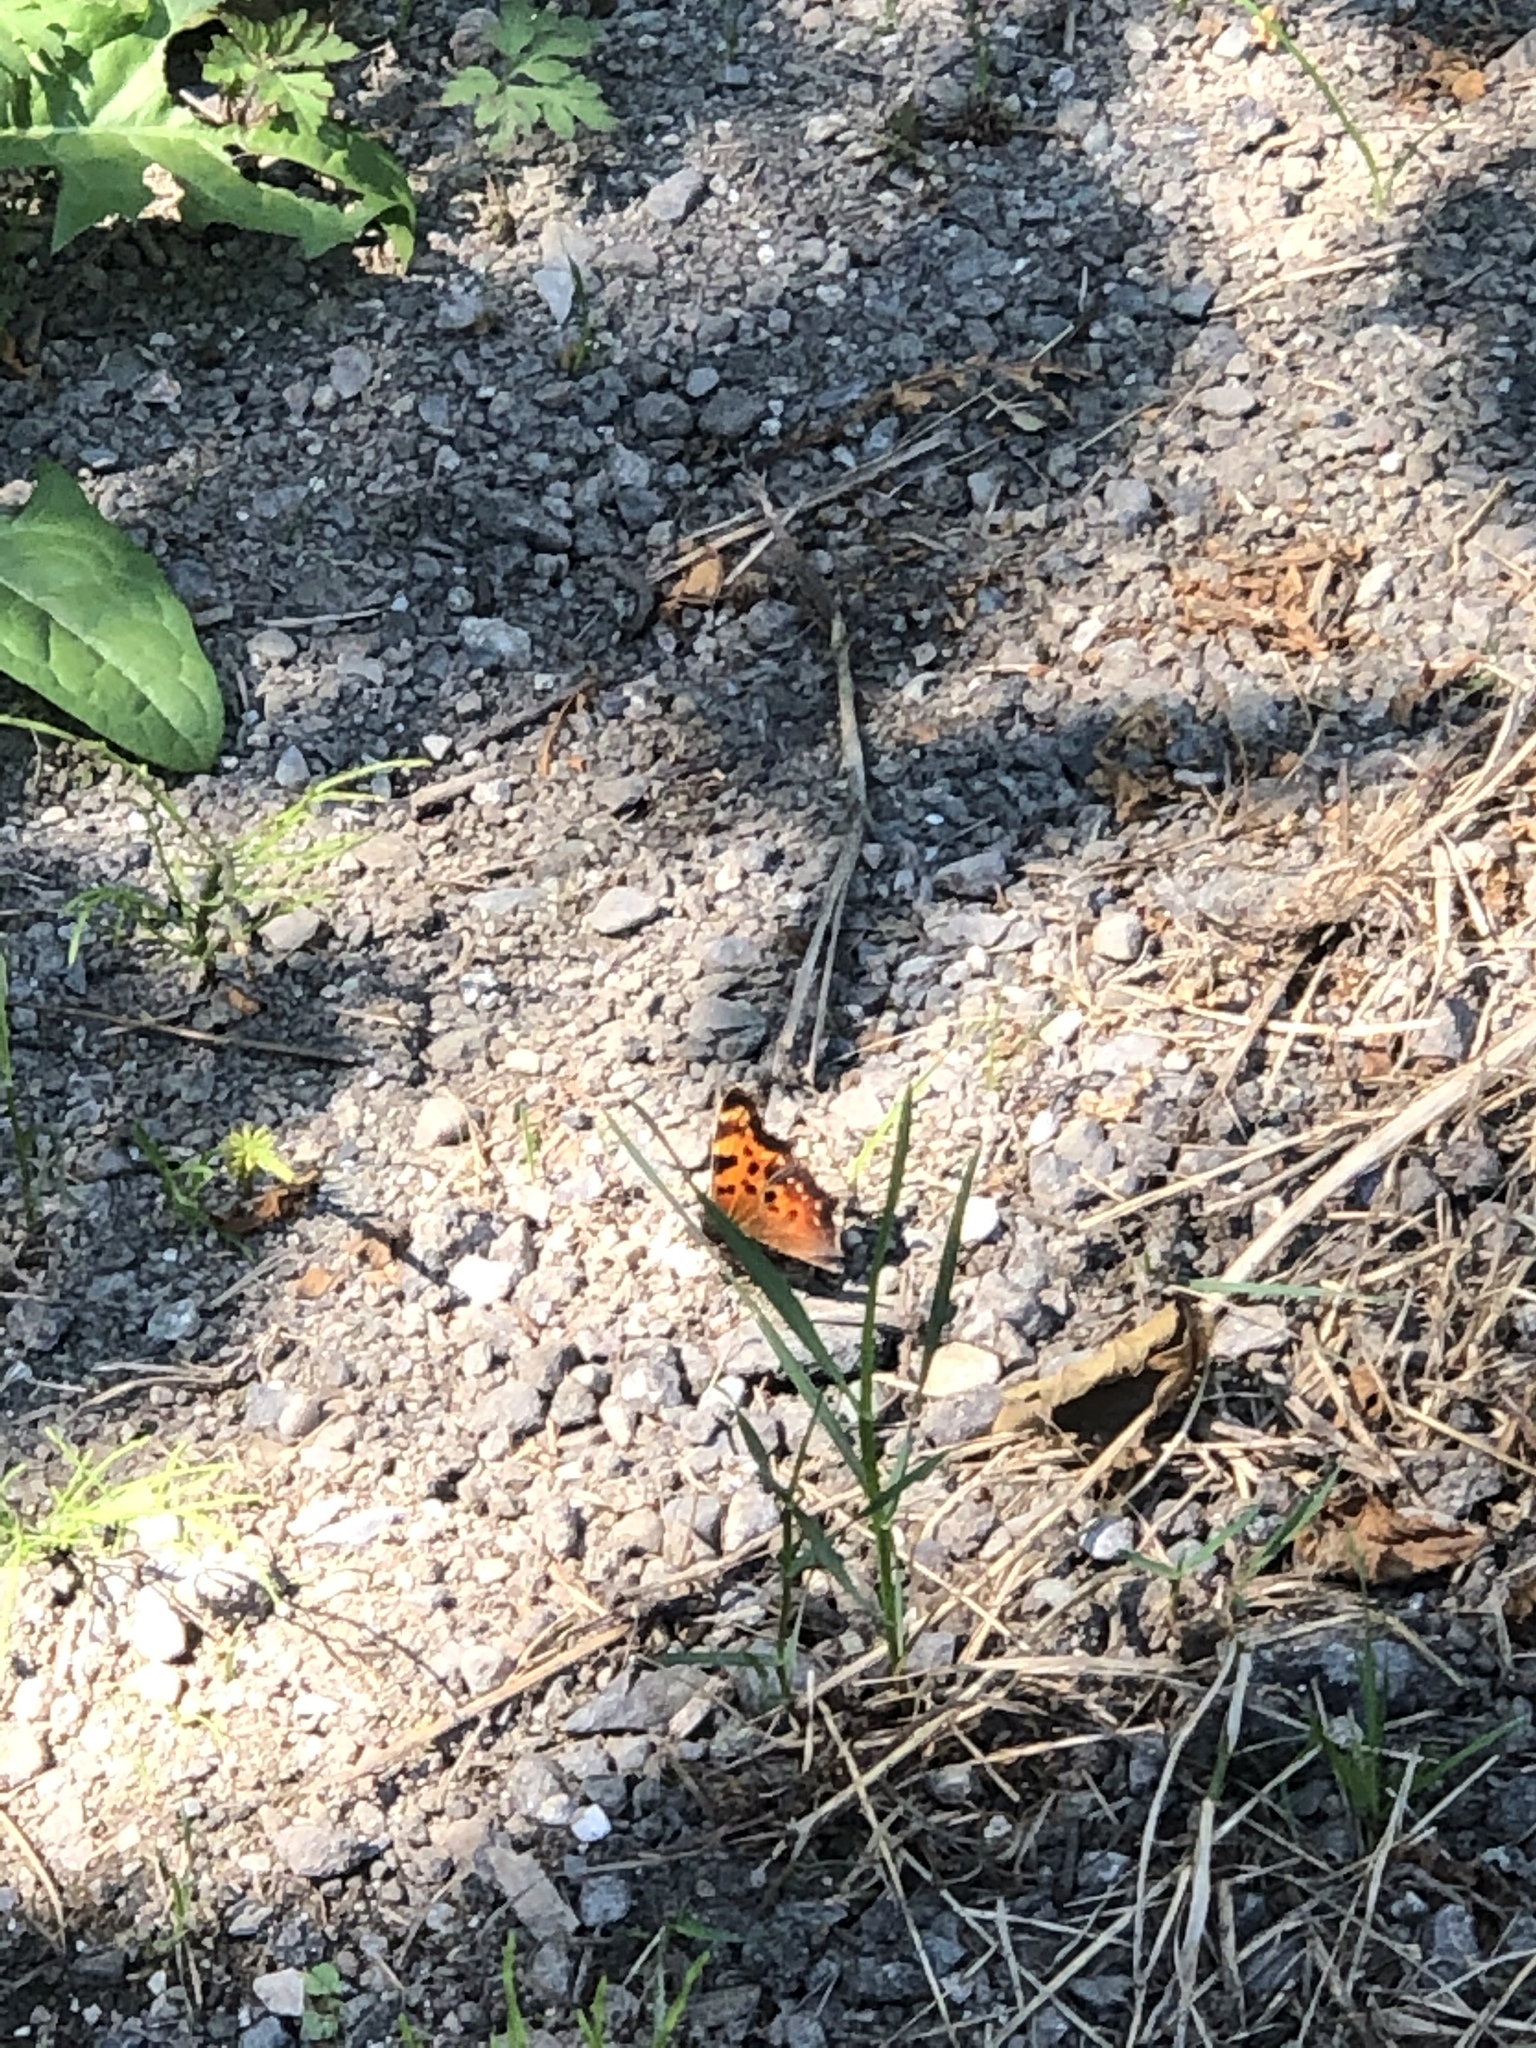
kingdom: Animalia
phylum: Arthropoda
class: Insecta
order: Lepidoptera
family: Nymphalidae
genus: Polygonia
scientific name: Polygonia faunus
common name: Green comma
